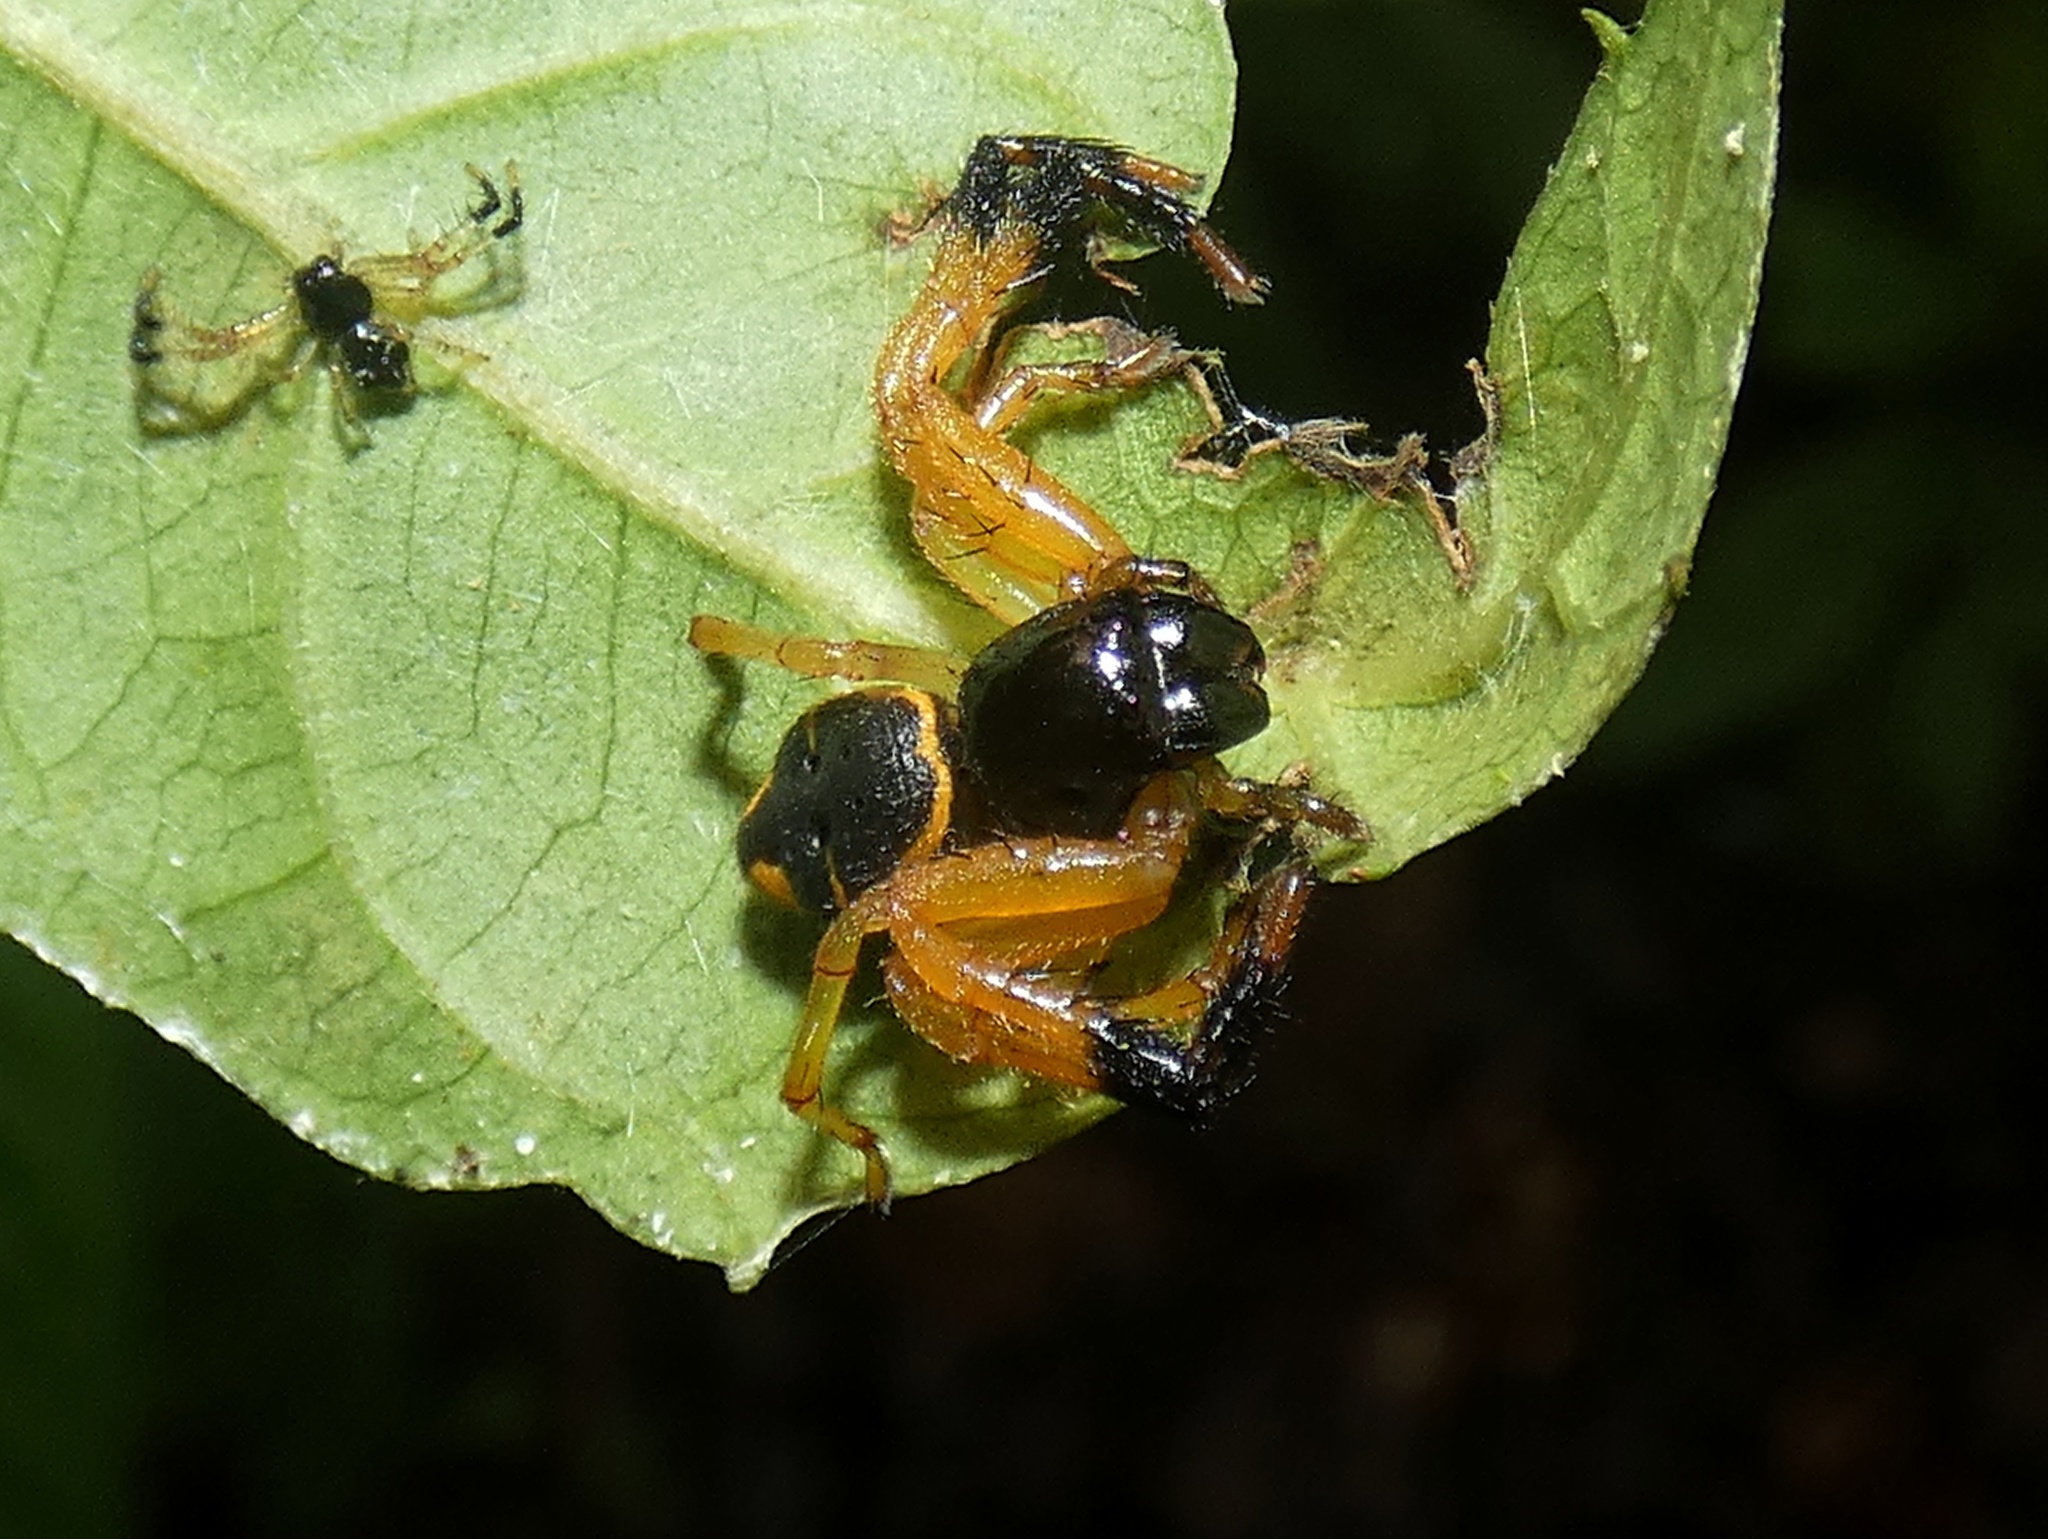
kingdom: Animalia
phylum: Arthropoda
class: Arachnida
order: Araneae
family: Thomisidae
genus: Stephanopoides
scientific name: Stephanopoides simoni
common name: Crab spiders
